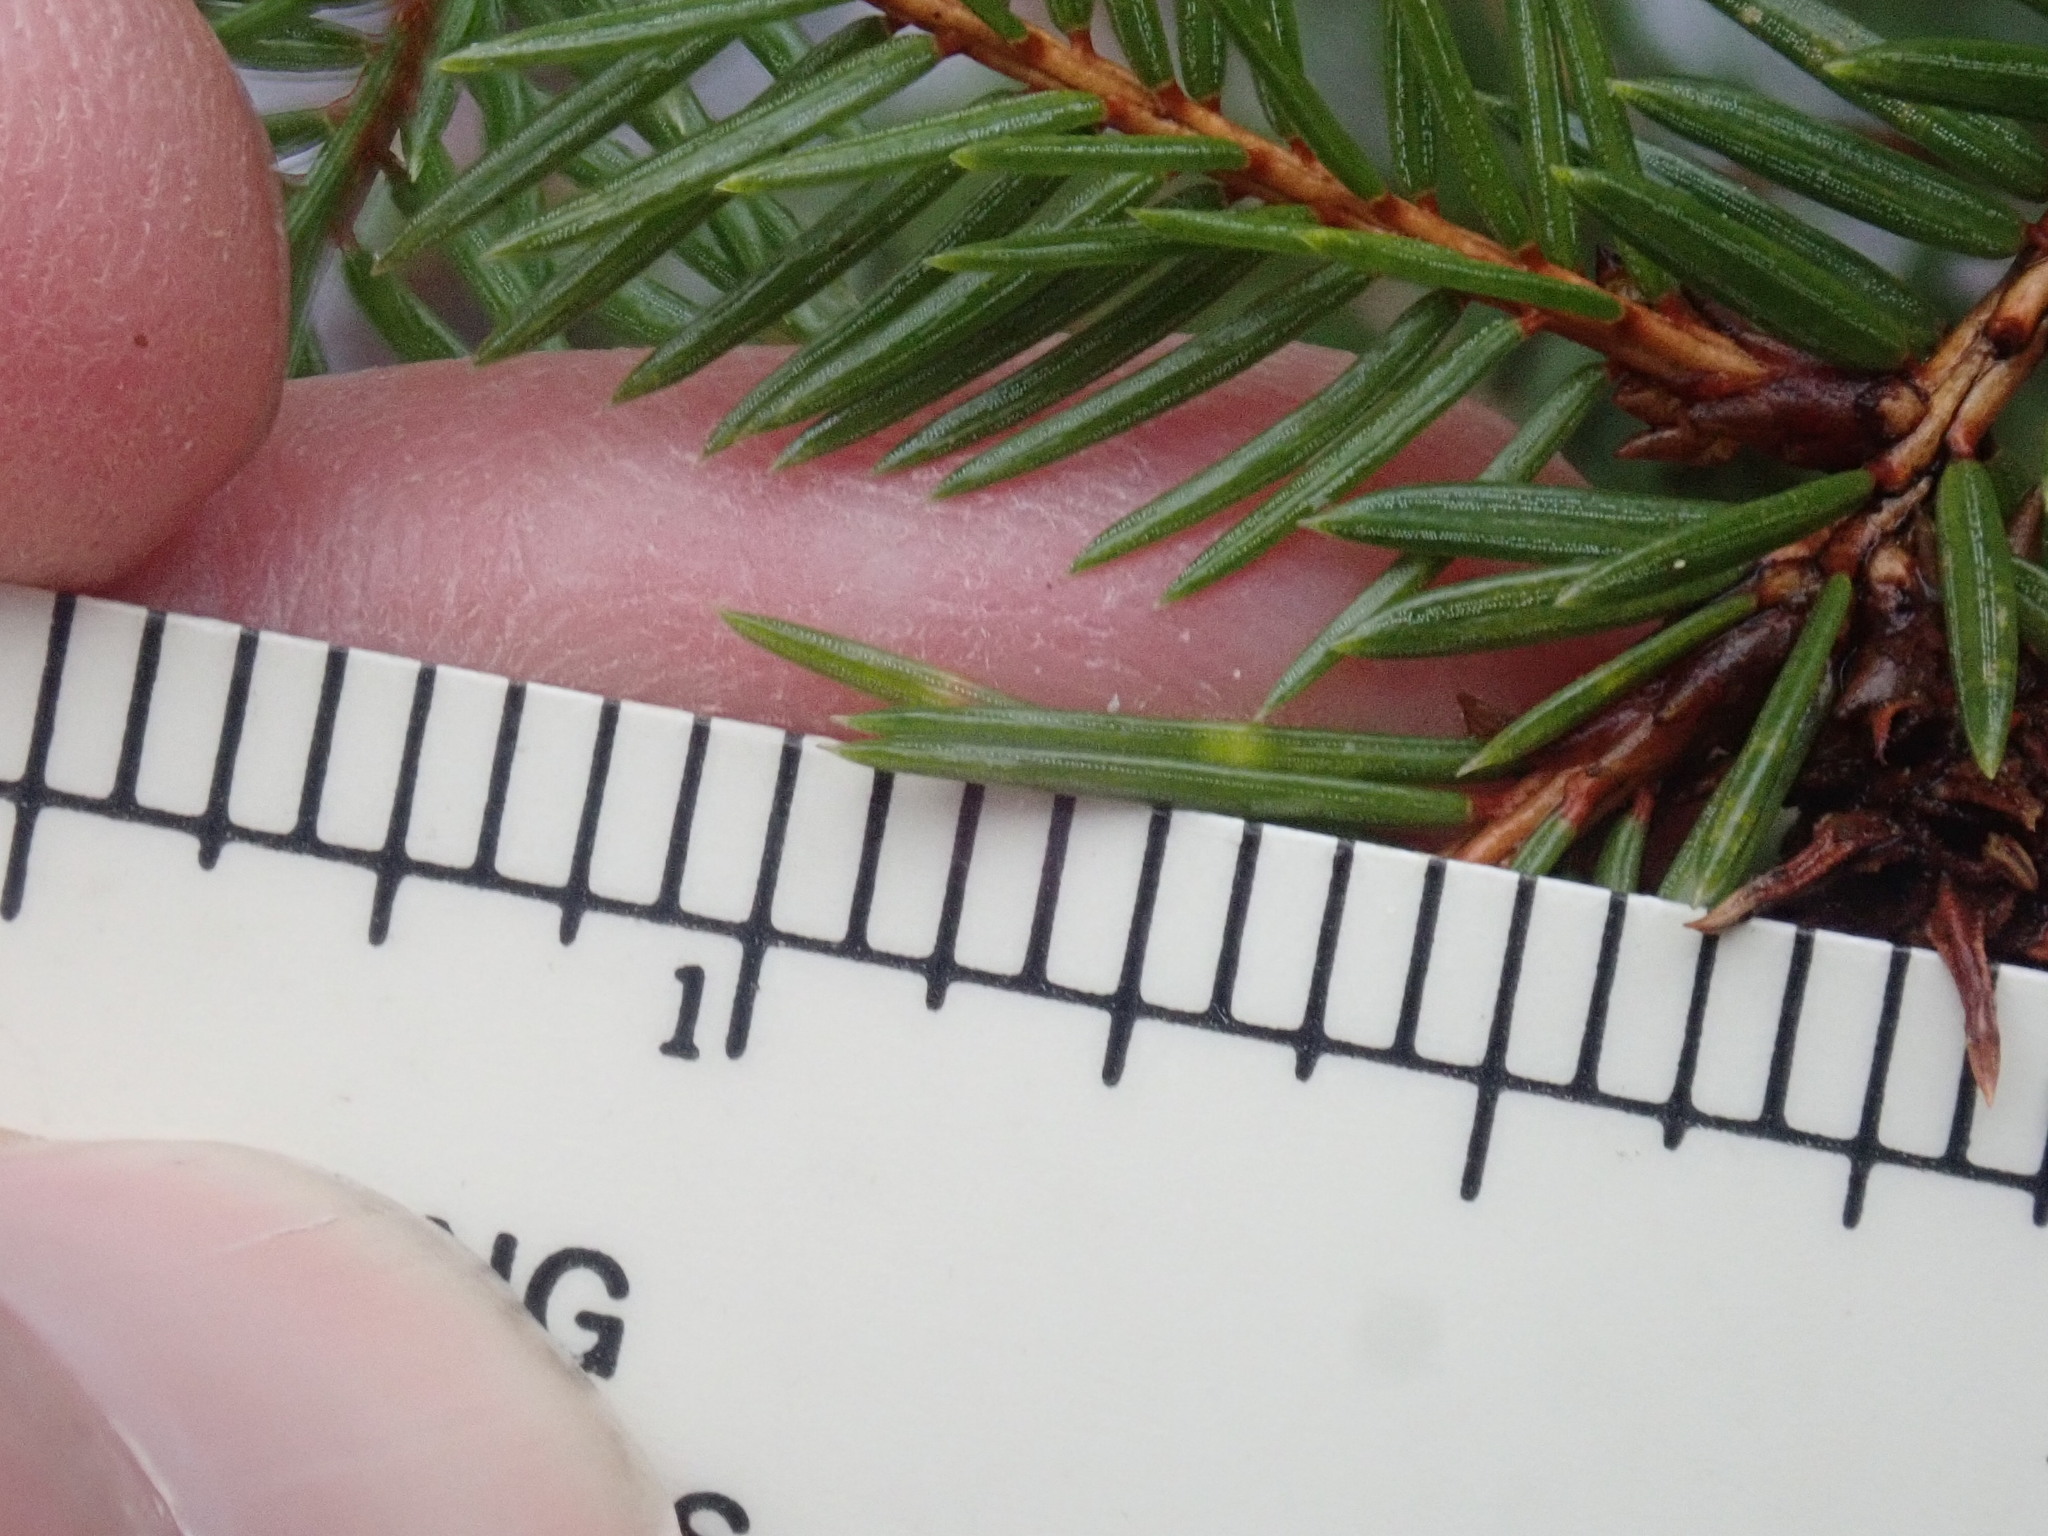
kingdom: Plantae
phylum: Tracheophyta
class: Pinopsida
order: Pinales
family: Pinaceae
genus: Picea
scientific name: Picea abies
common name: Norway spruce
